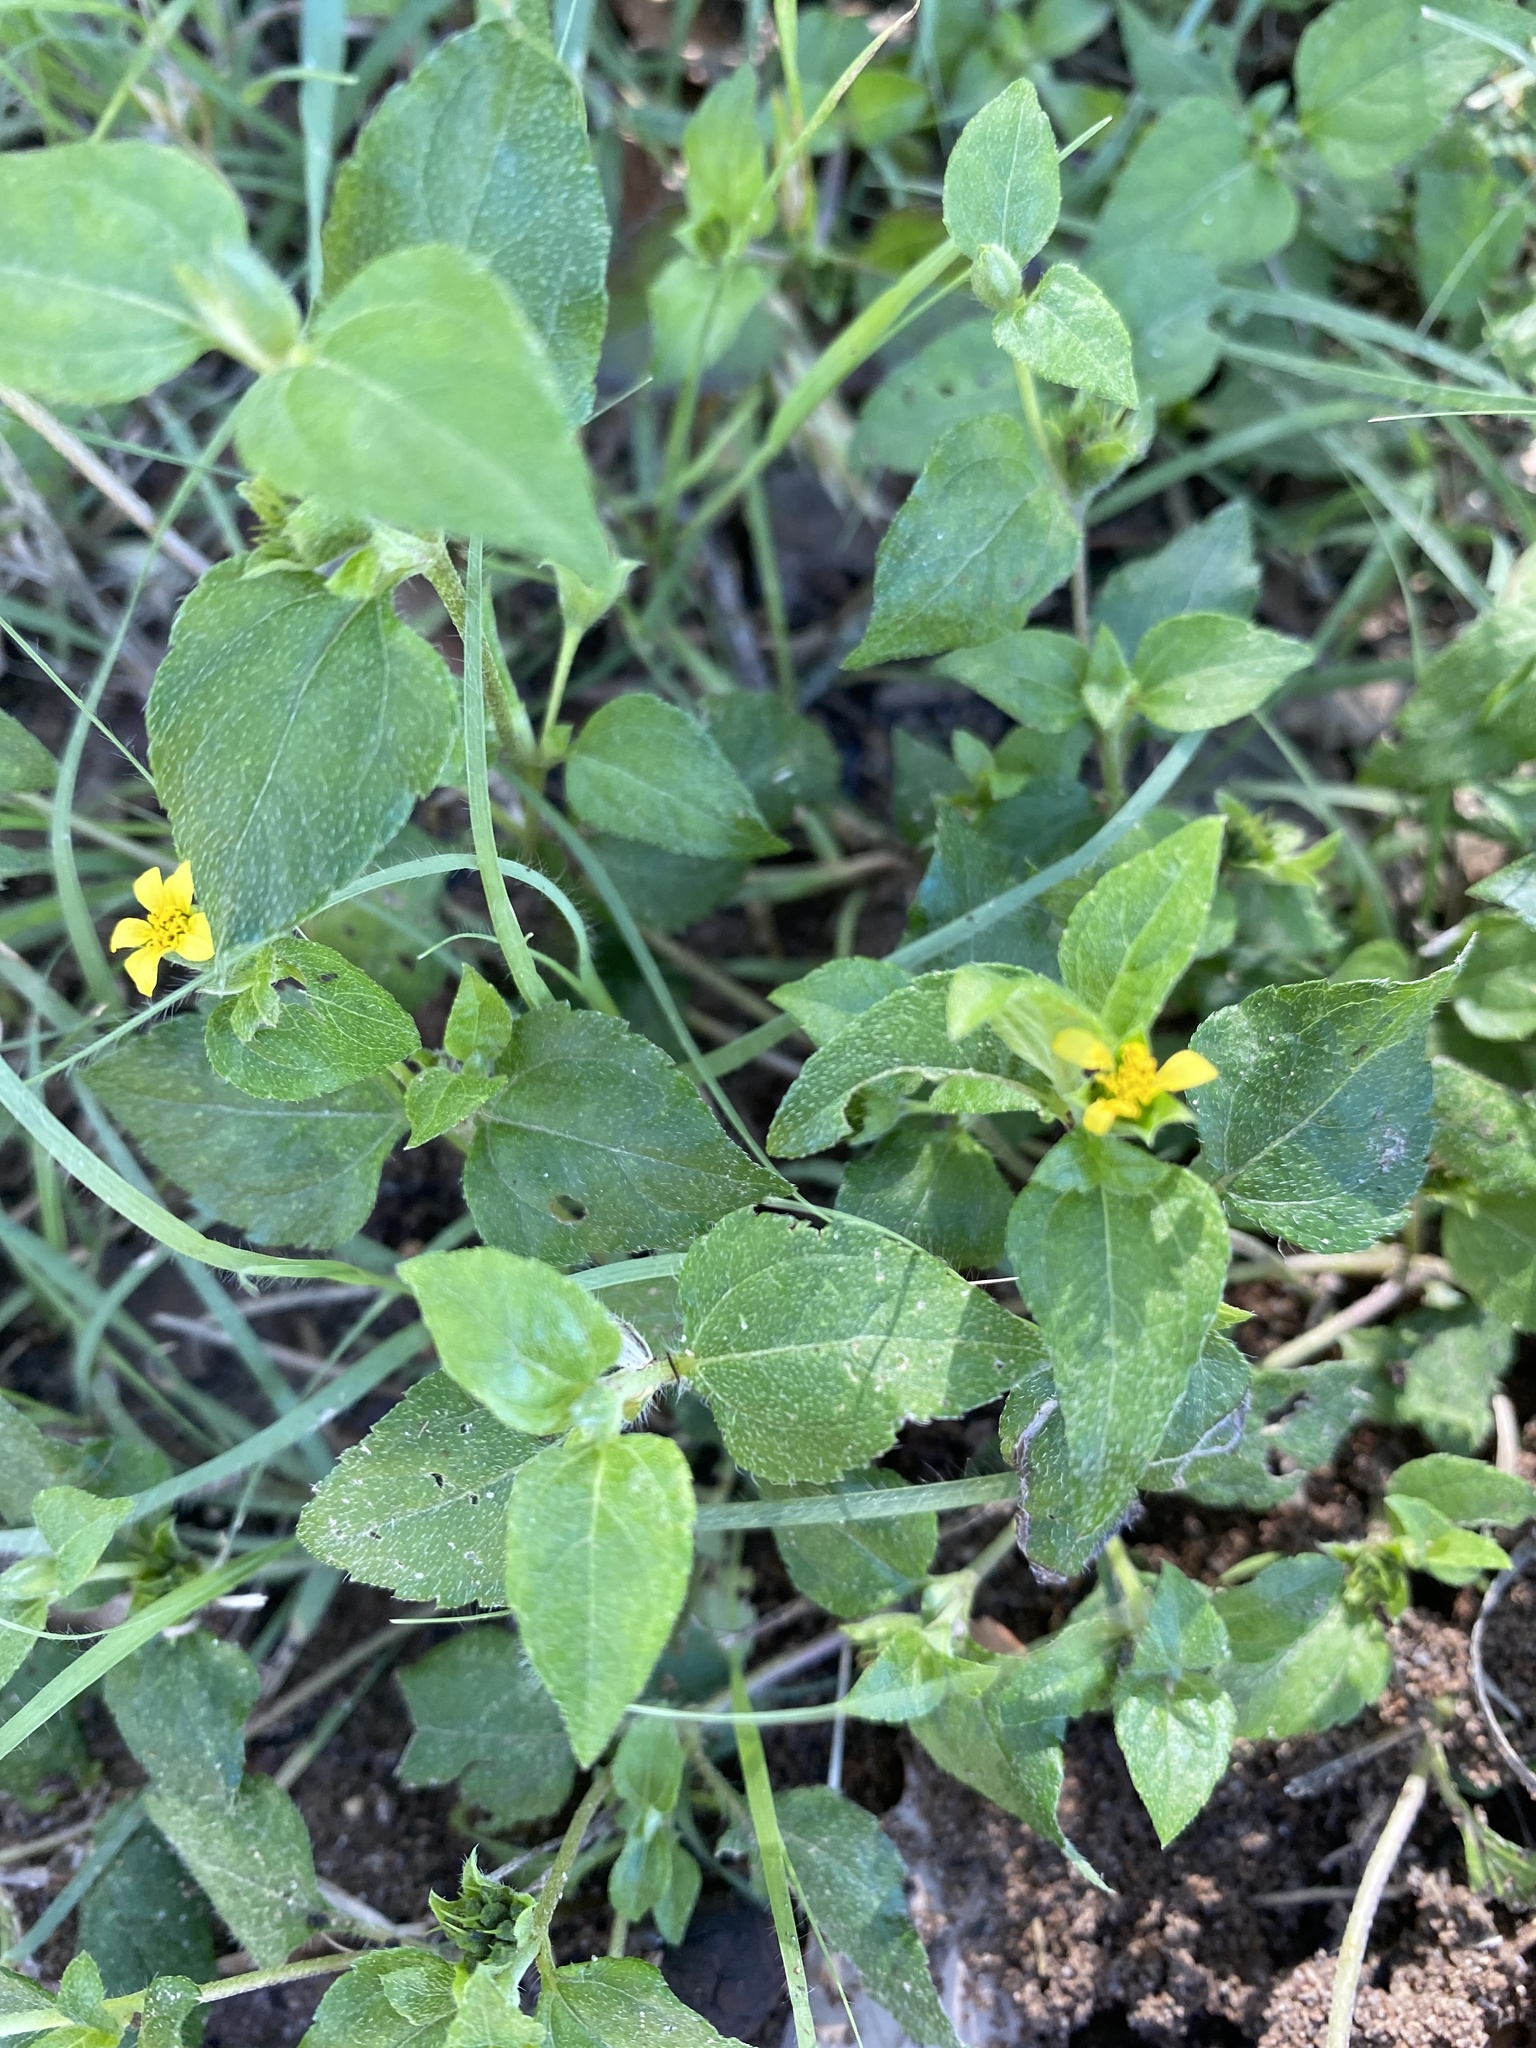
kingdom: Plantae
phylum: Tracheophyta
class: Magnoliopsida
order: Asterales
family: Asteraceae
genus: Calyptocarpus
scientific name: Calyptocarpus vialis
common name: Straggler daisy
